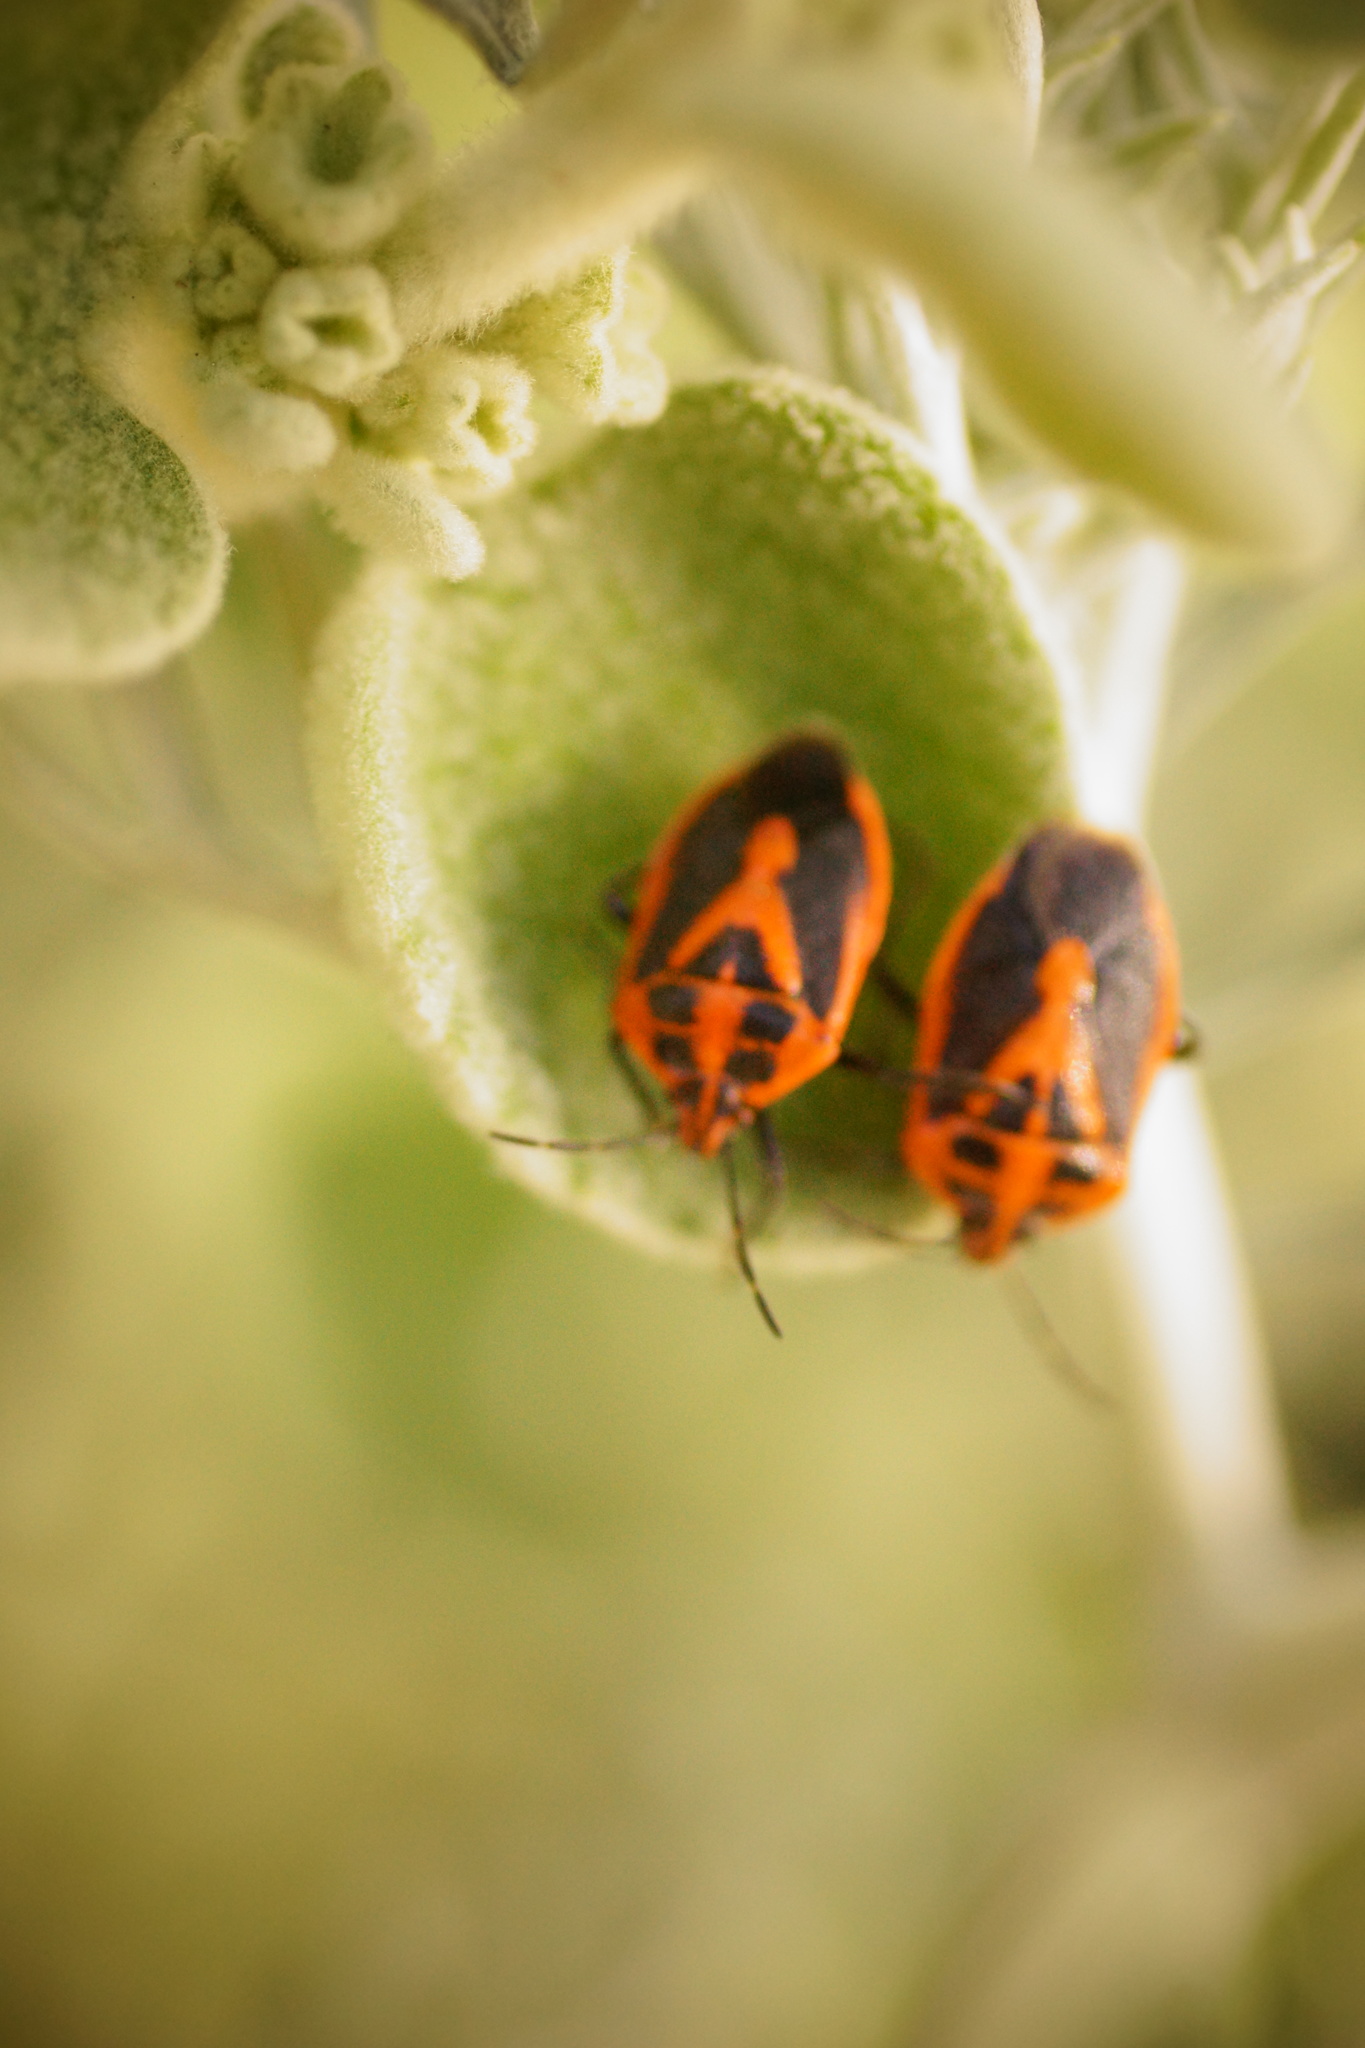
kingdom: Animalia
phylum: Arthropoda
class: Insecta
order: Hemiptera
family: Pentatomidae
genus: Agonoscelis
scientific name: Agonoscelis rutila
